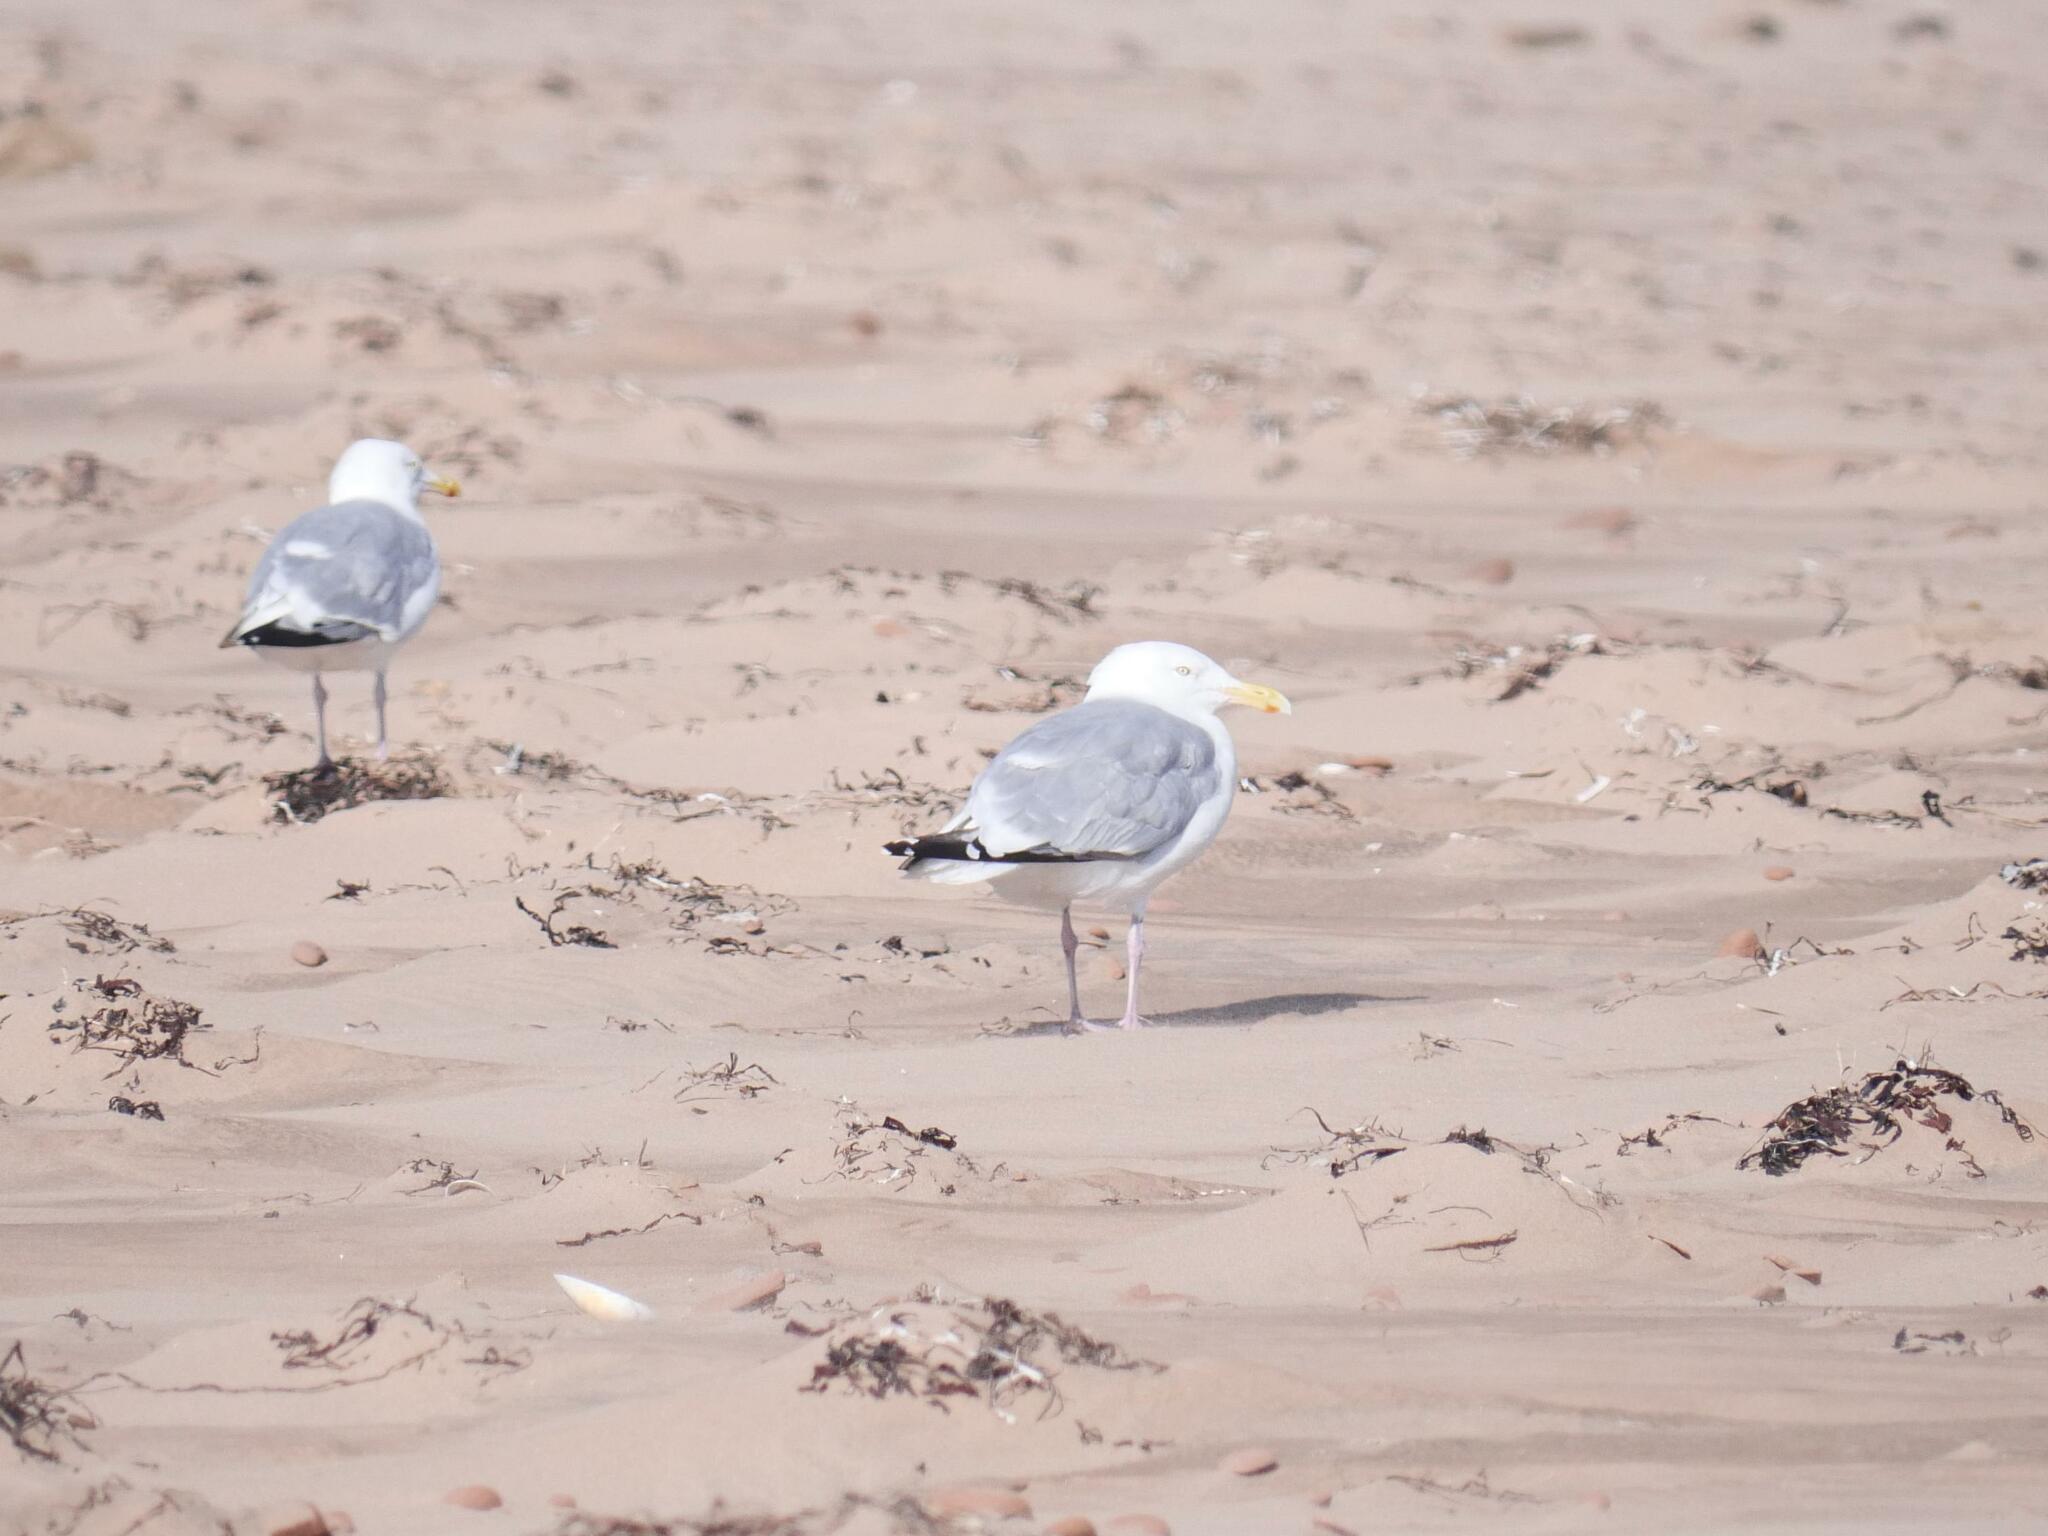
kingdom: Animalia
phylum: Chordata
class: Aves
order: Charadriiformes
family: Laridae
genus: Larus
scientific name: Larus argentatus
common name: Herring gull
